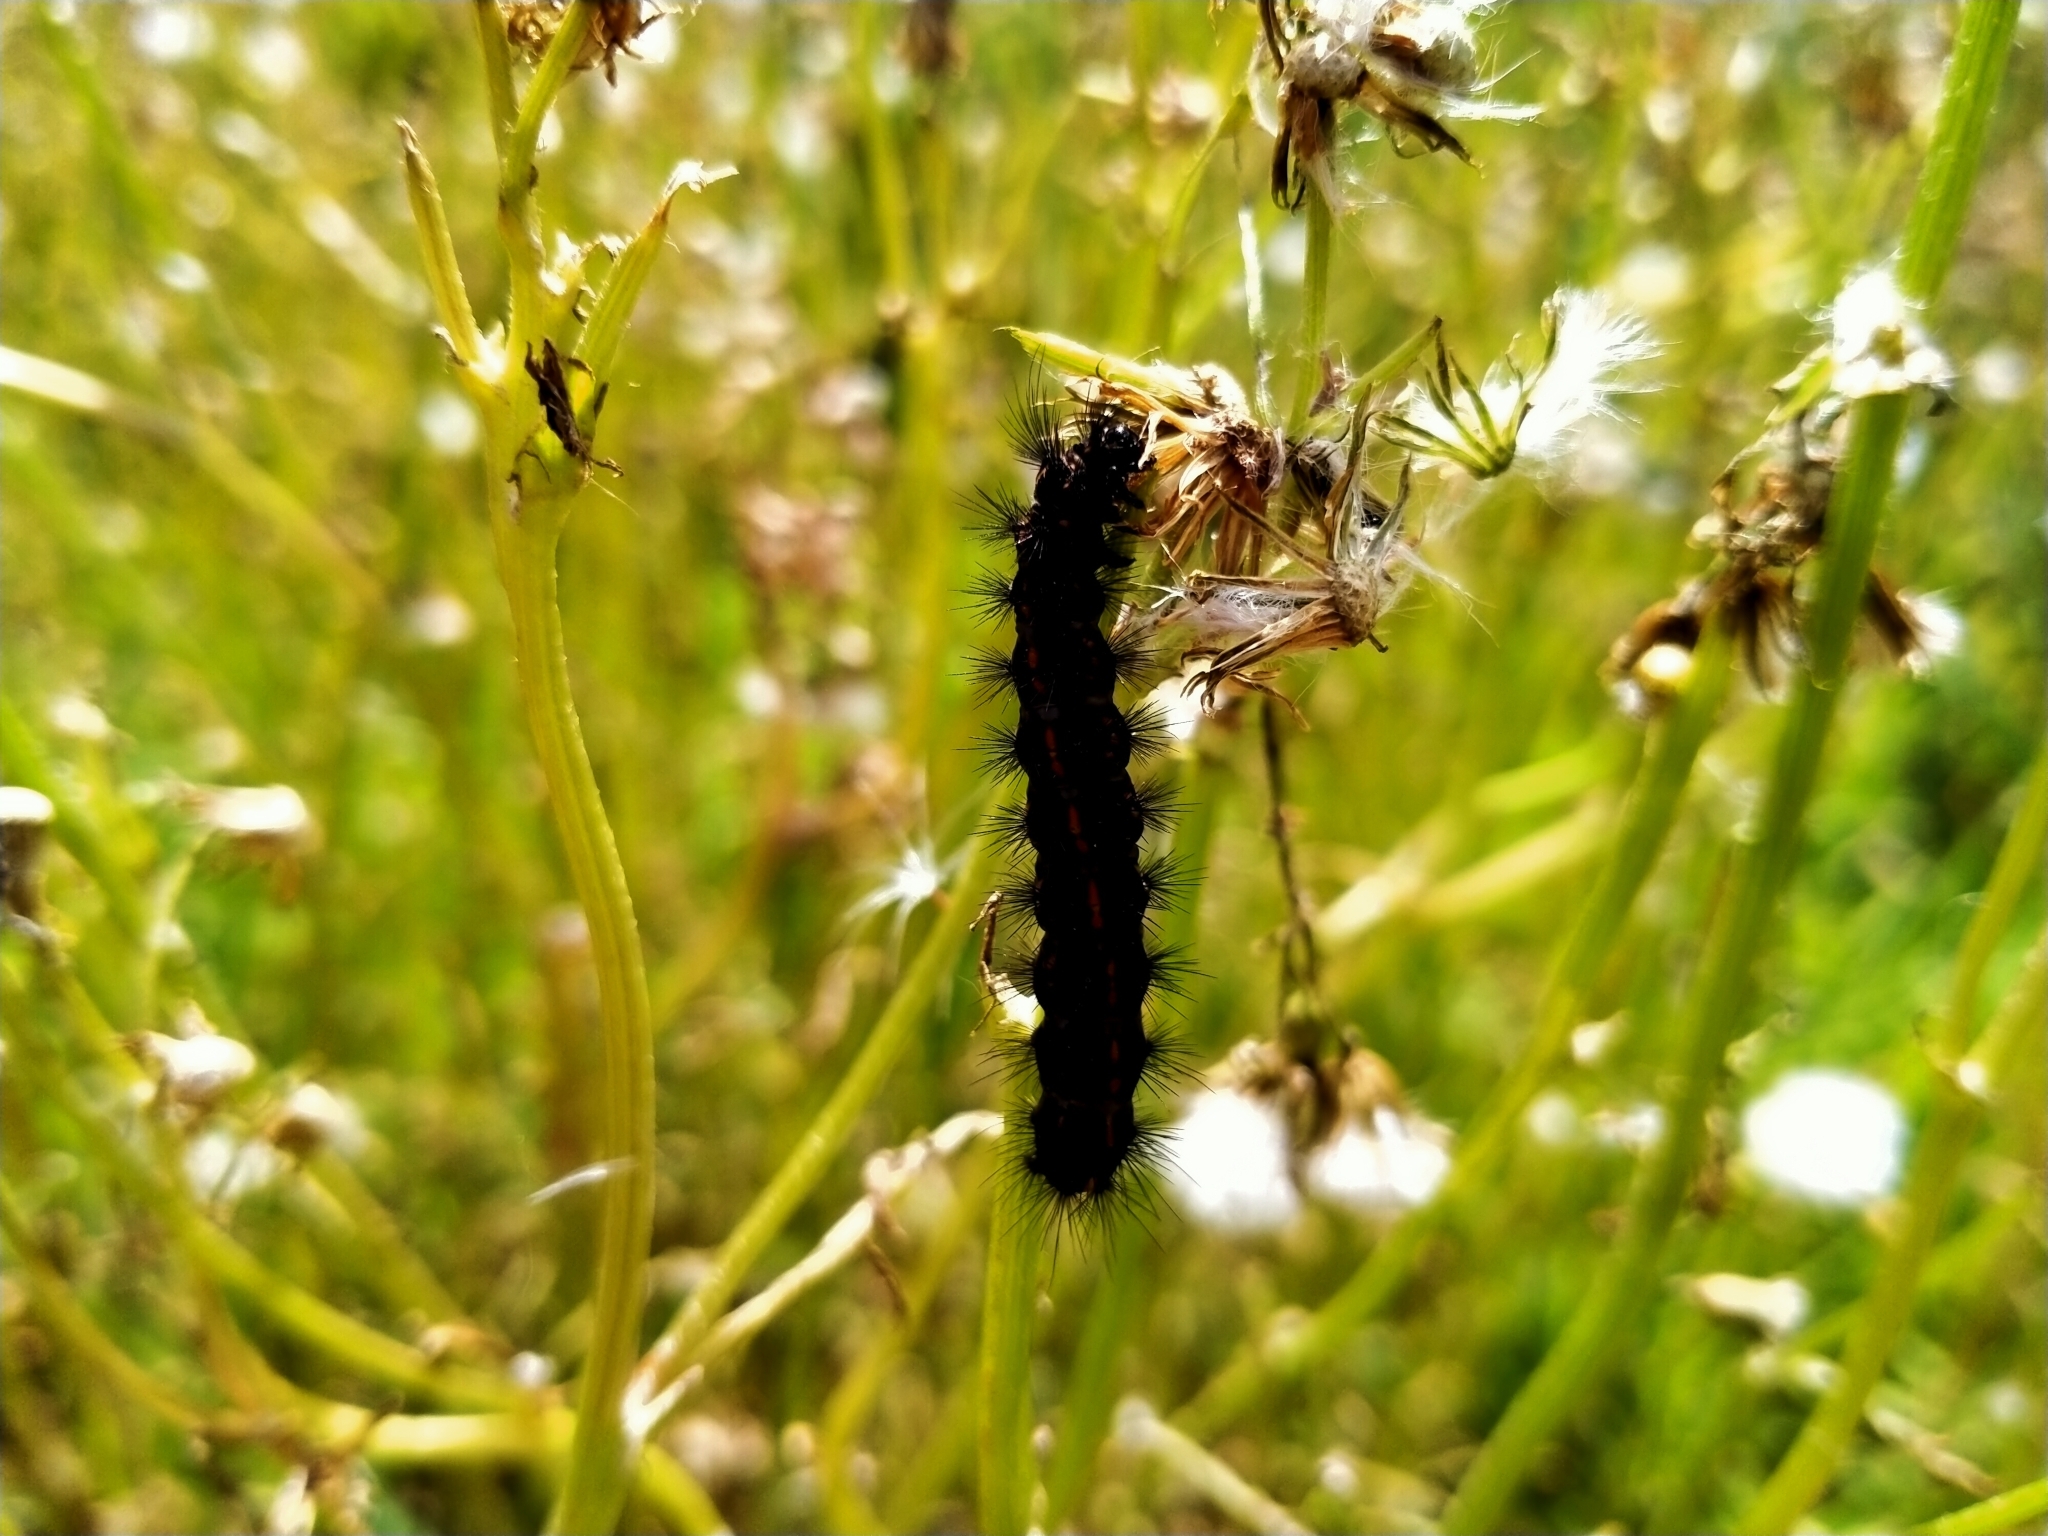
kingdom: Animalia
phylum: Arthropoda
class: Insecta
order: Lepidoptera
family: Erebidae
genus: Nyctemera
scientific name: Nyctemera annulatum
